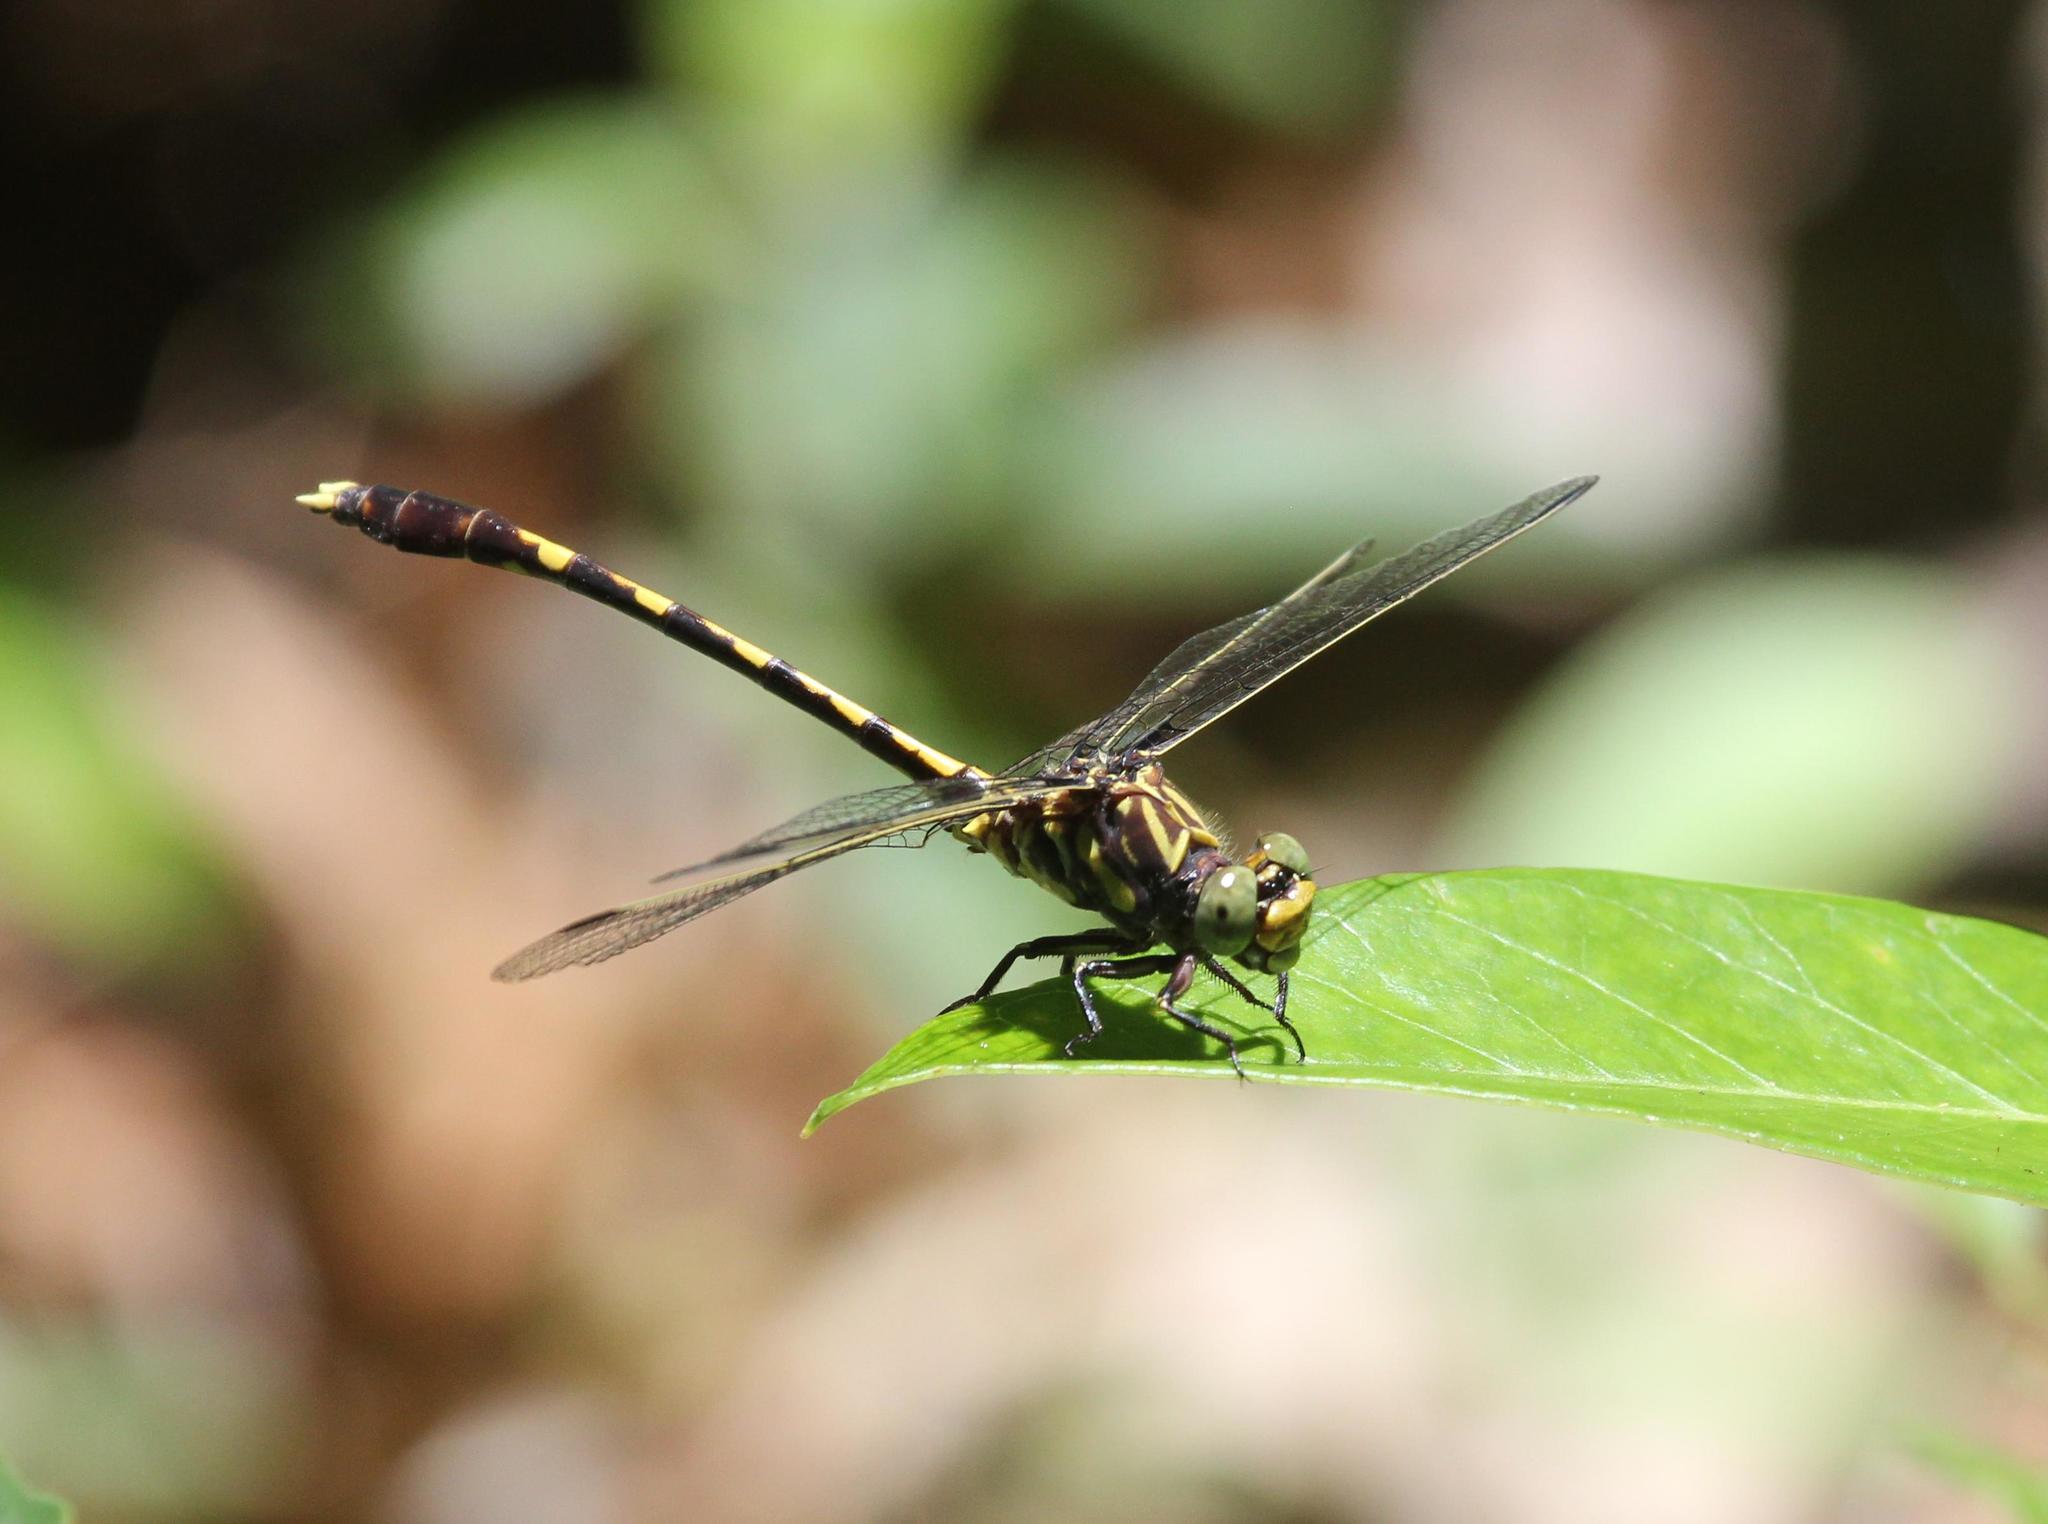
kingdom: Animalia
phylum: Arthropoda
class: Insecta
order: Odonata
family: Gomphidae
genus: Progomphus
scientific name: Progomphus obscurus
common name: Common sanddragon
